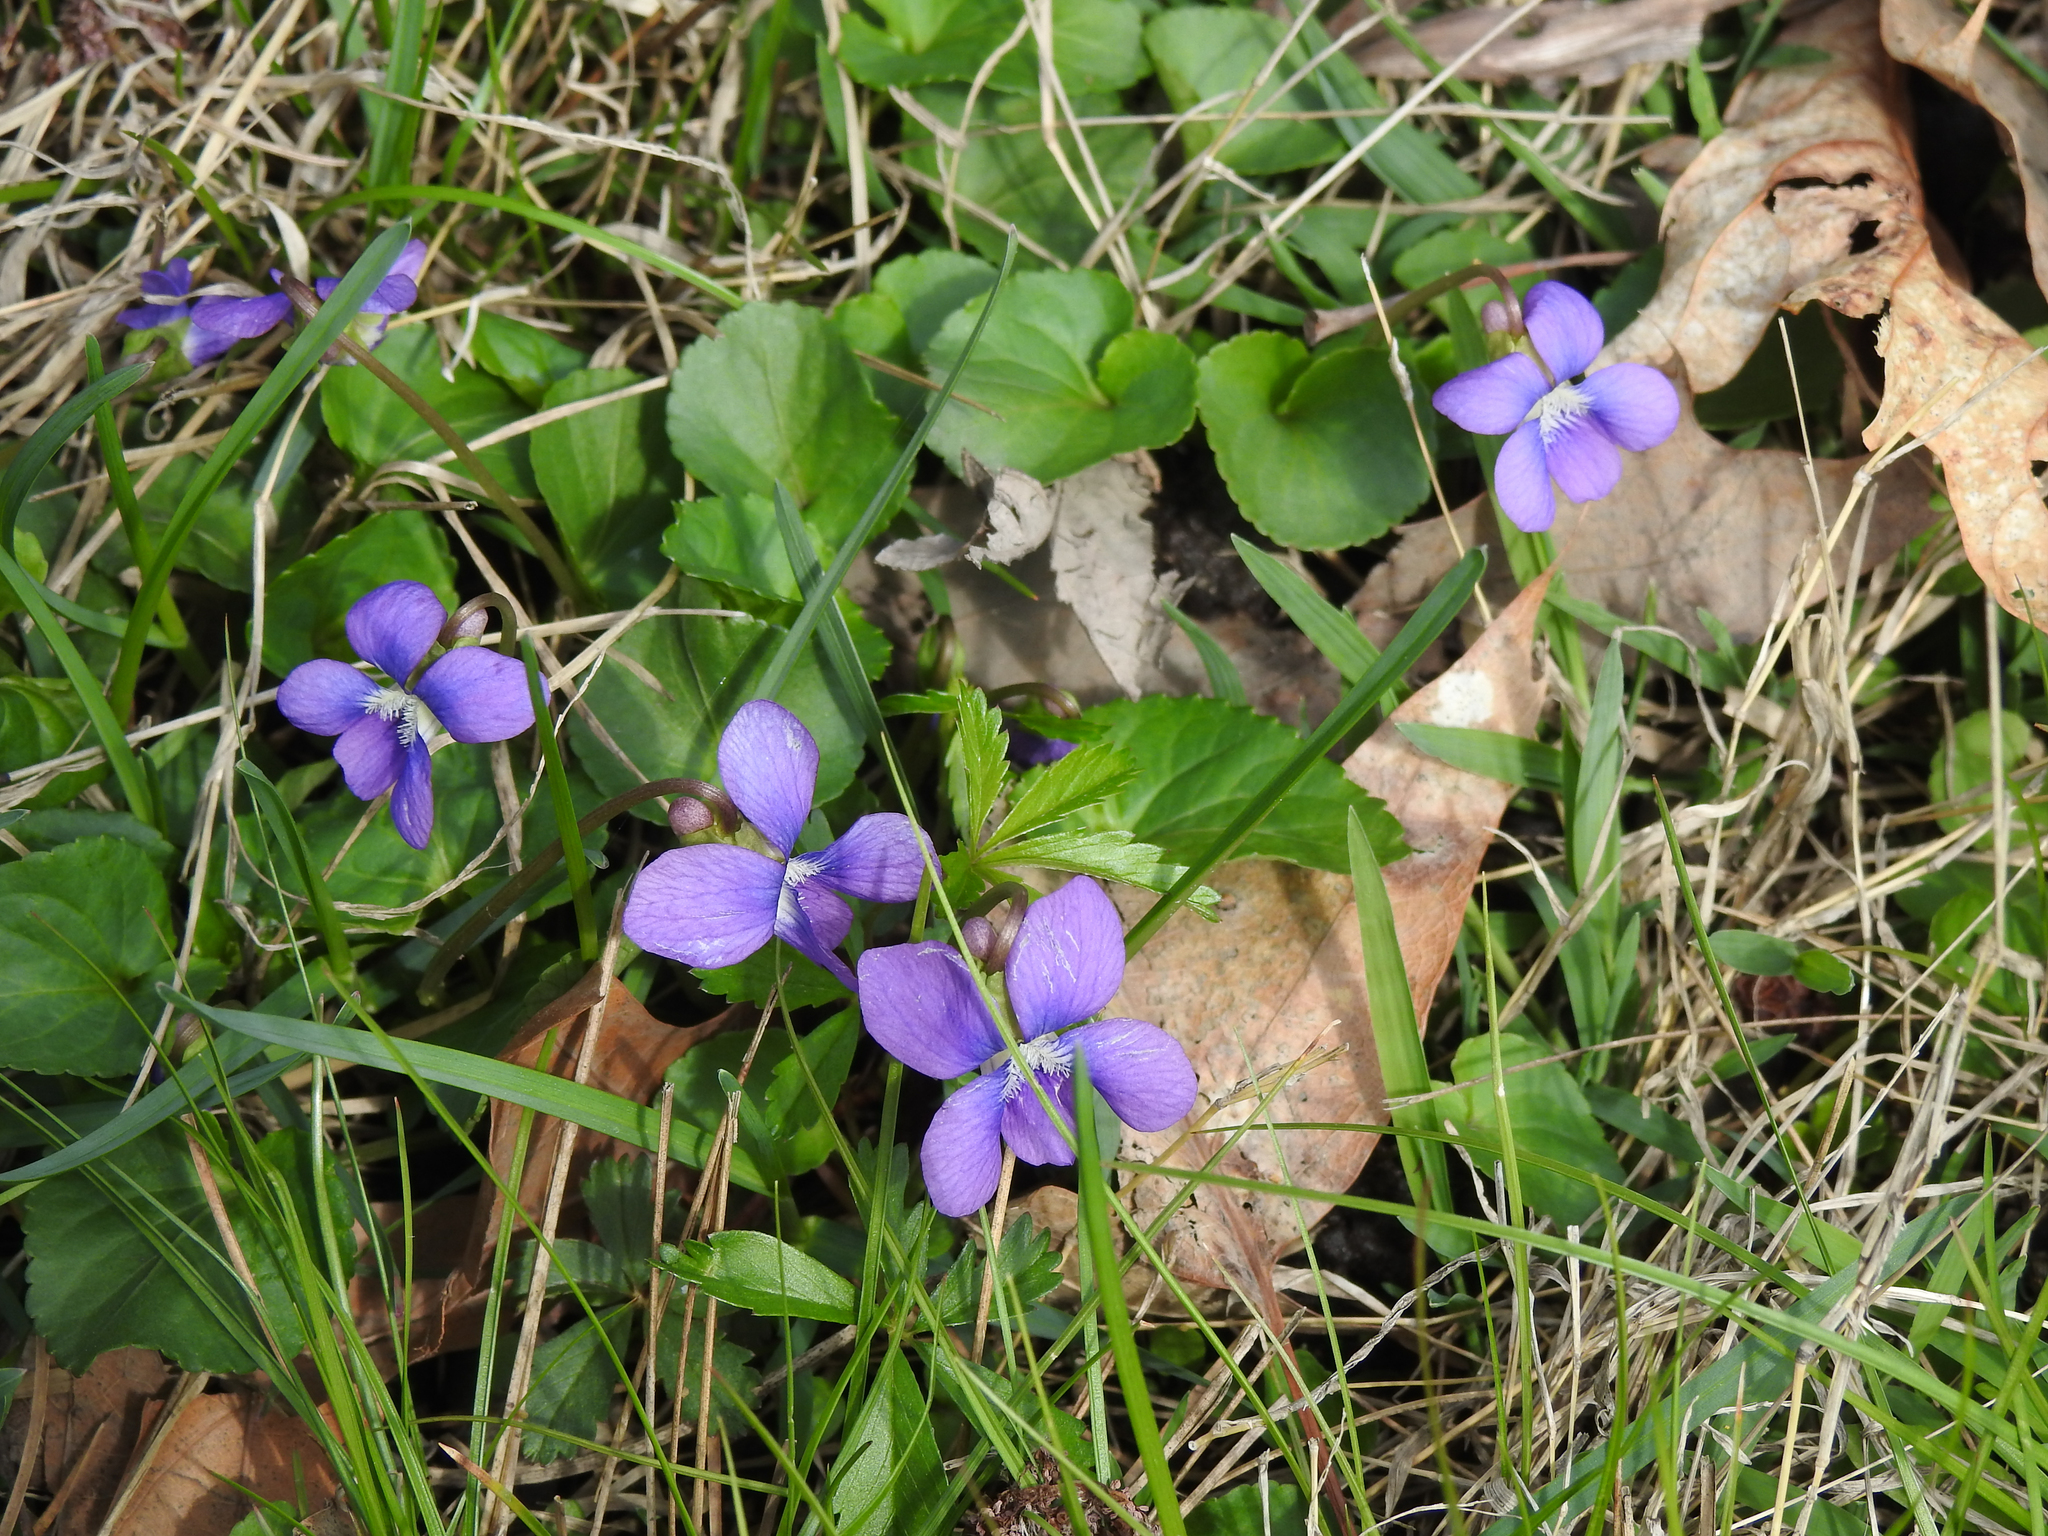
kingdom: Plantae
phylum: Tracheophyta
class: Magnoliopsida
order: Malpighiales
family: Violaceae
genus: Viola
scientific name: Viola sororia
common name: Dooryard violet
